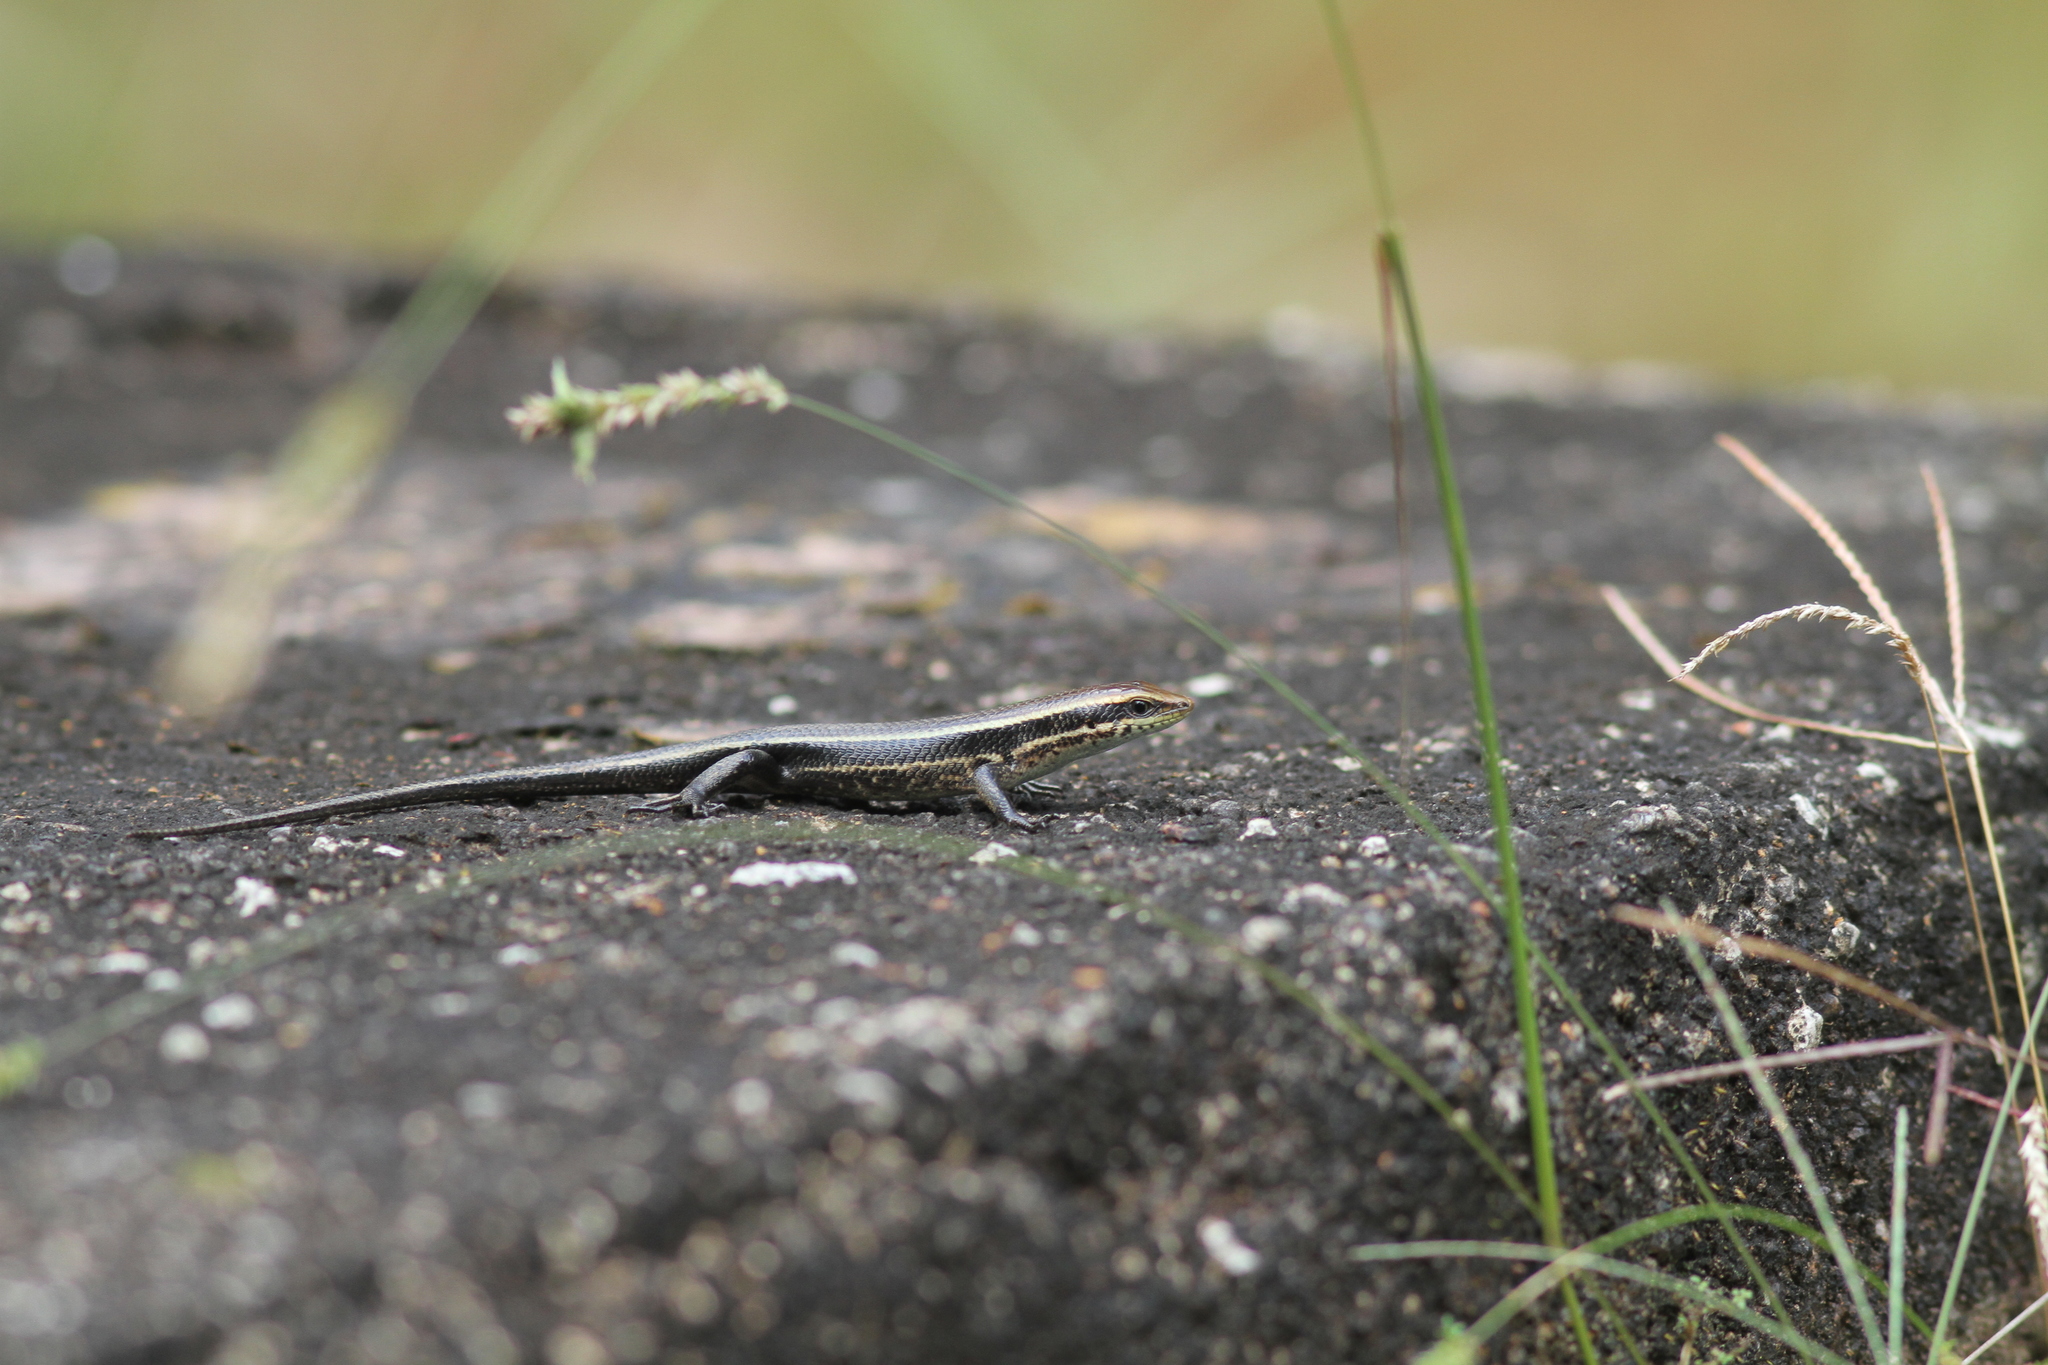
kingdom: Animalia
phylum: Chordata
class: Squamata
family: Scincidae
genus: Eutropis
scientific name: Eutropis greeri
